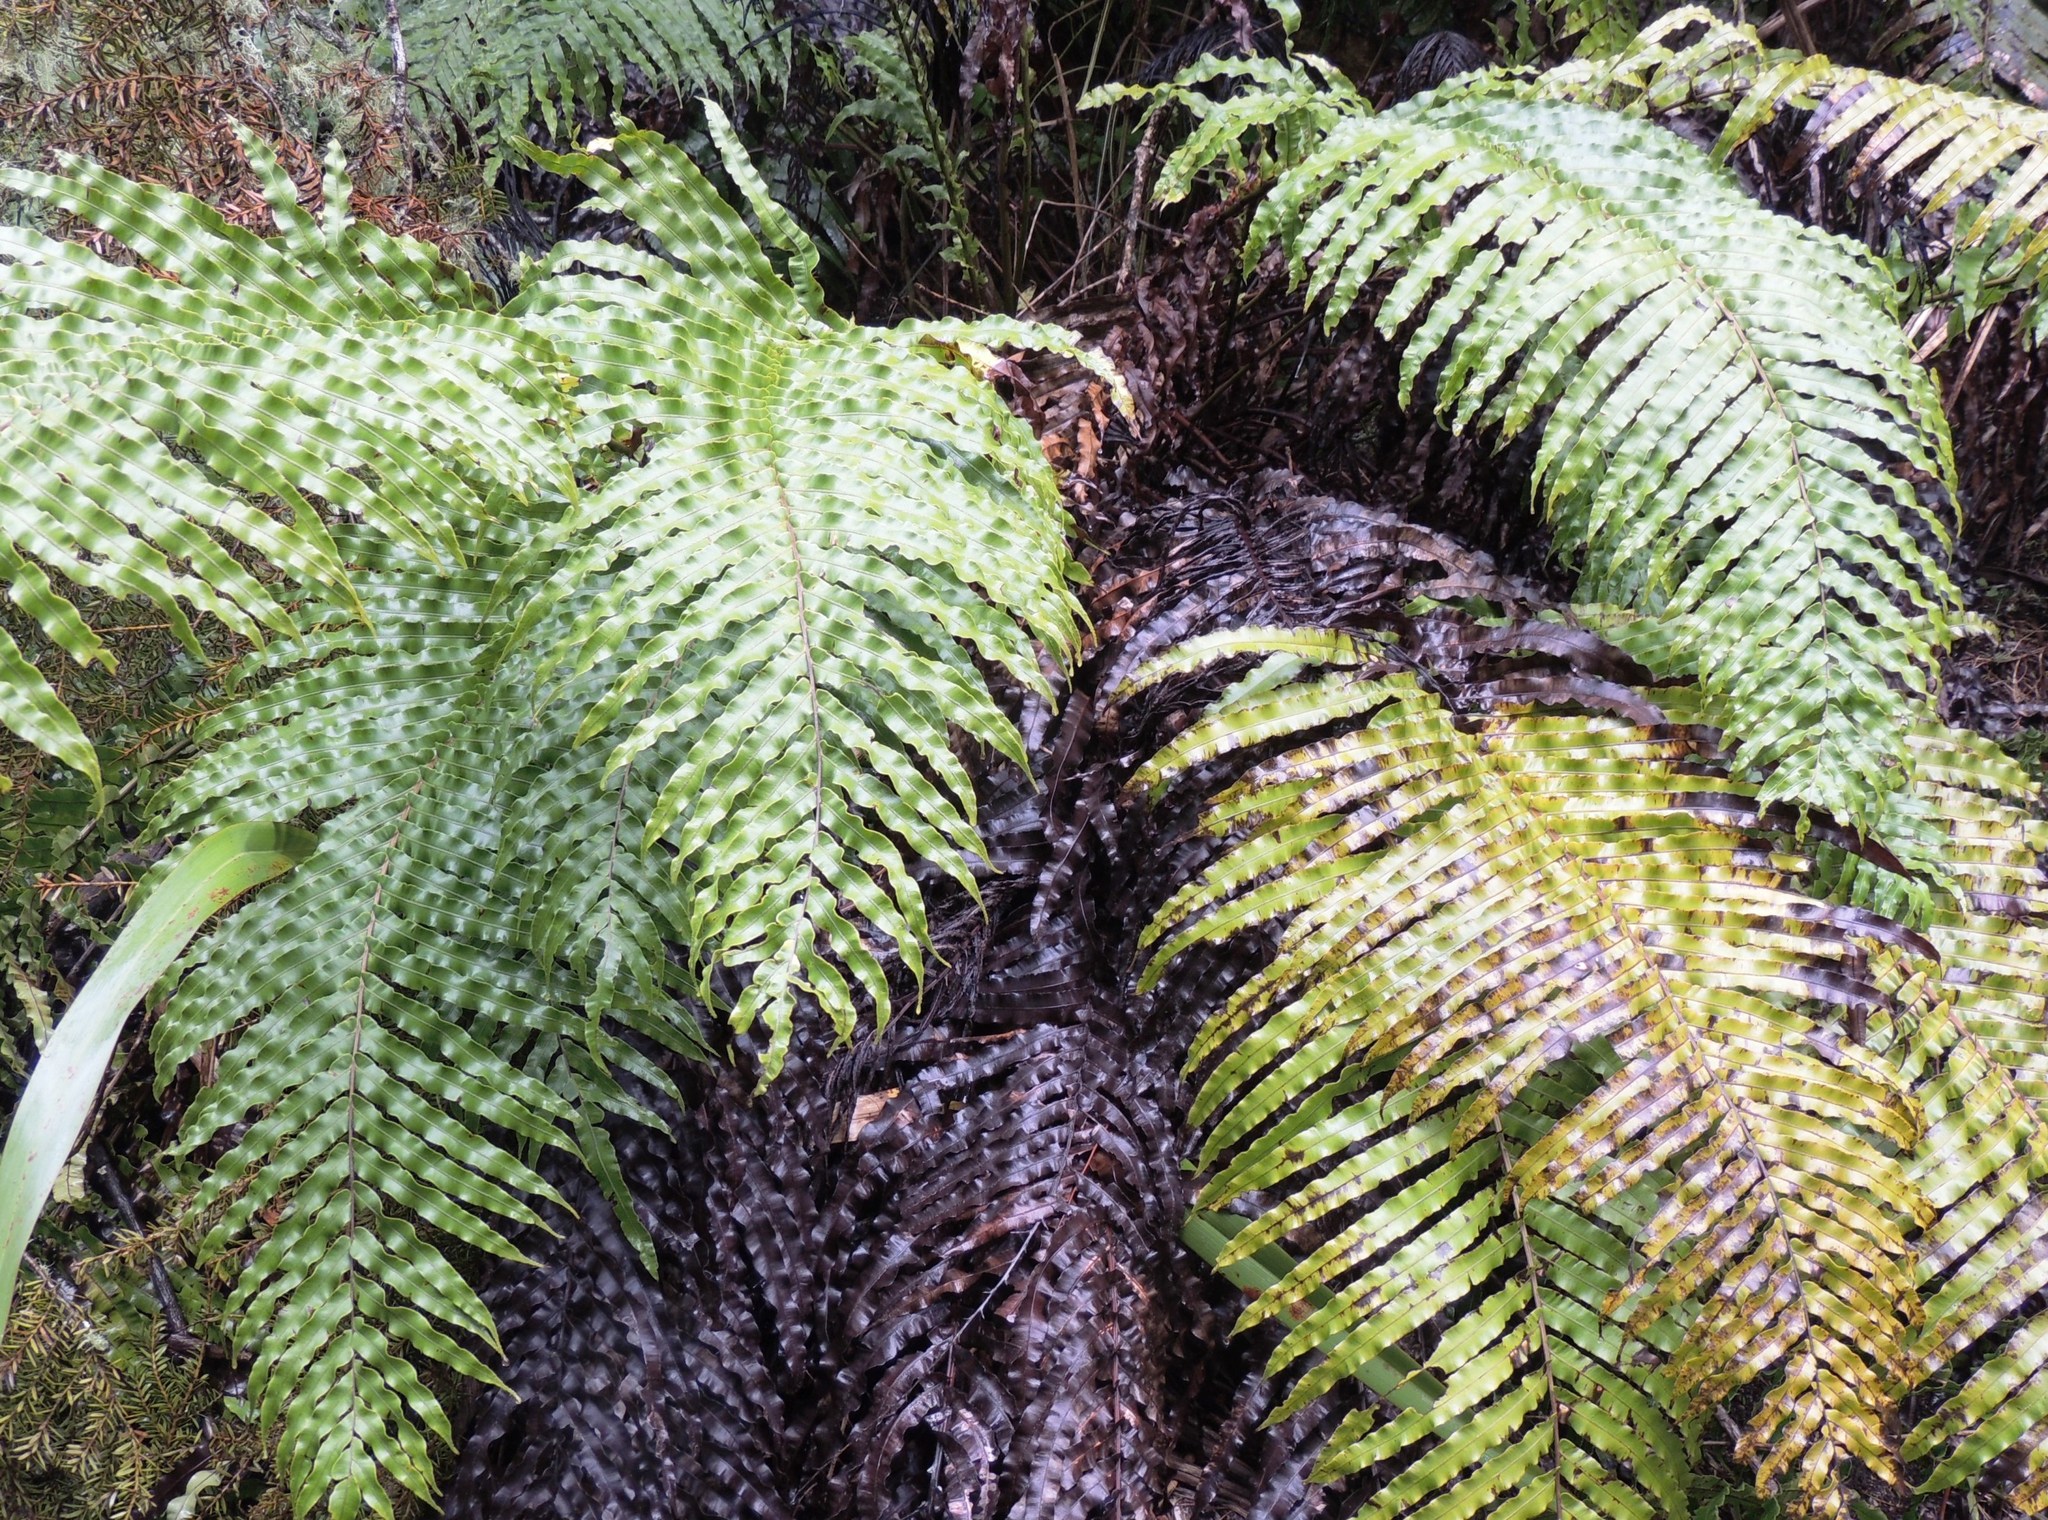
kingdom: Plantae
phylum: Tracheophyta
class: Polypodiopsida
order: Polypodiales
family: Blechnaceae
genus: Parablechnum
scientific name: Parablechnum novae-zelandiae
